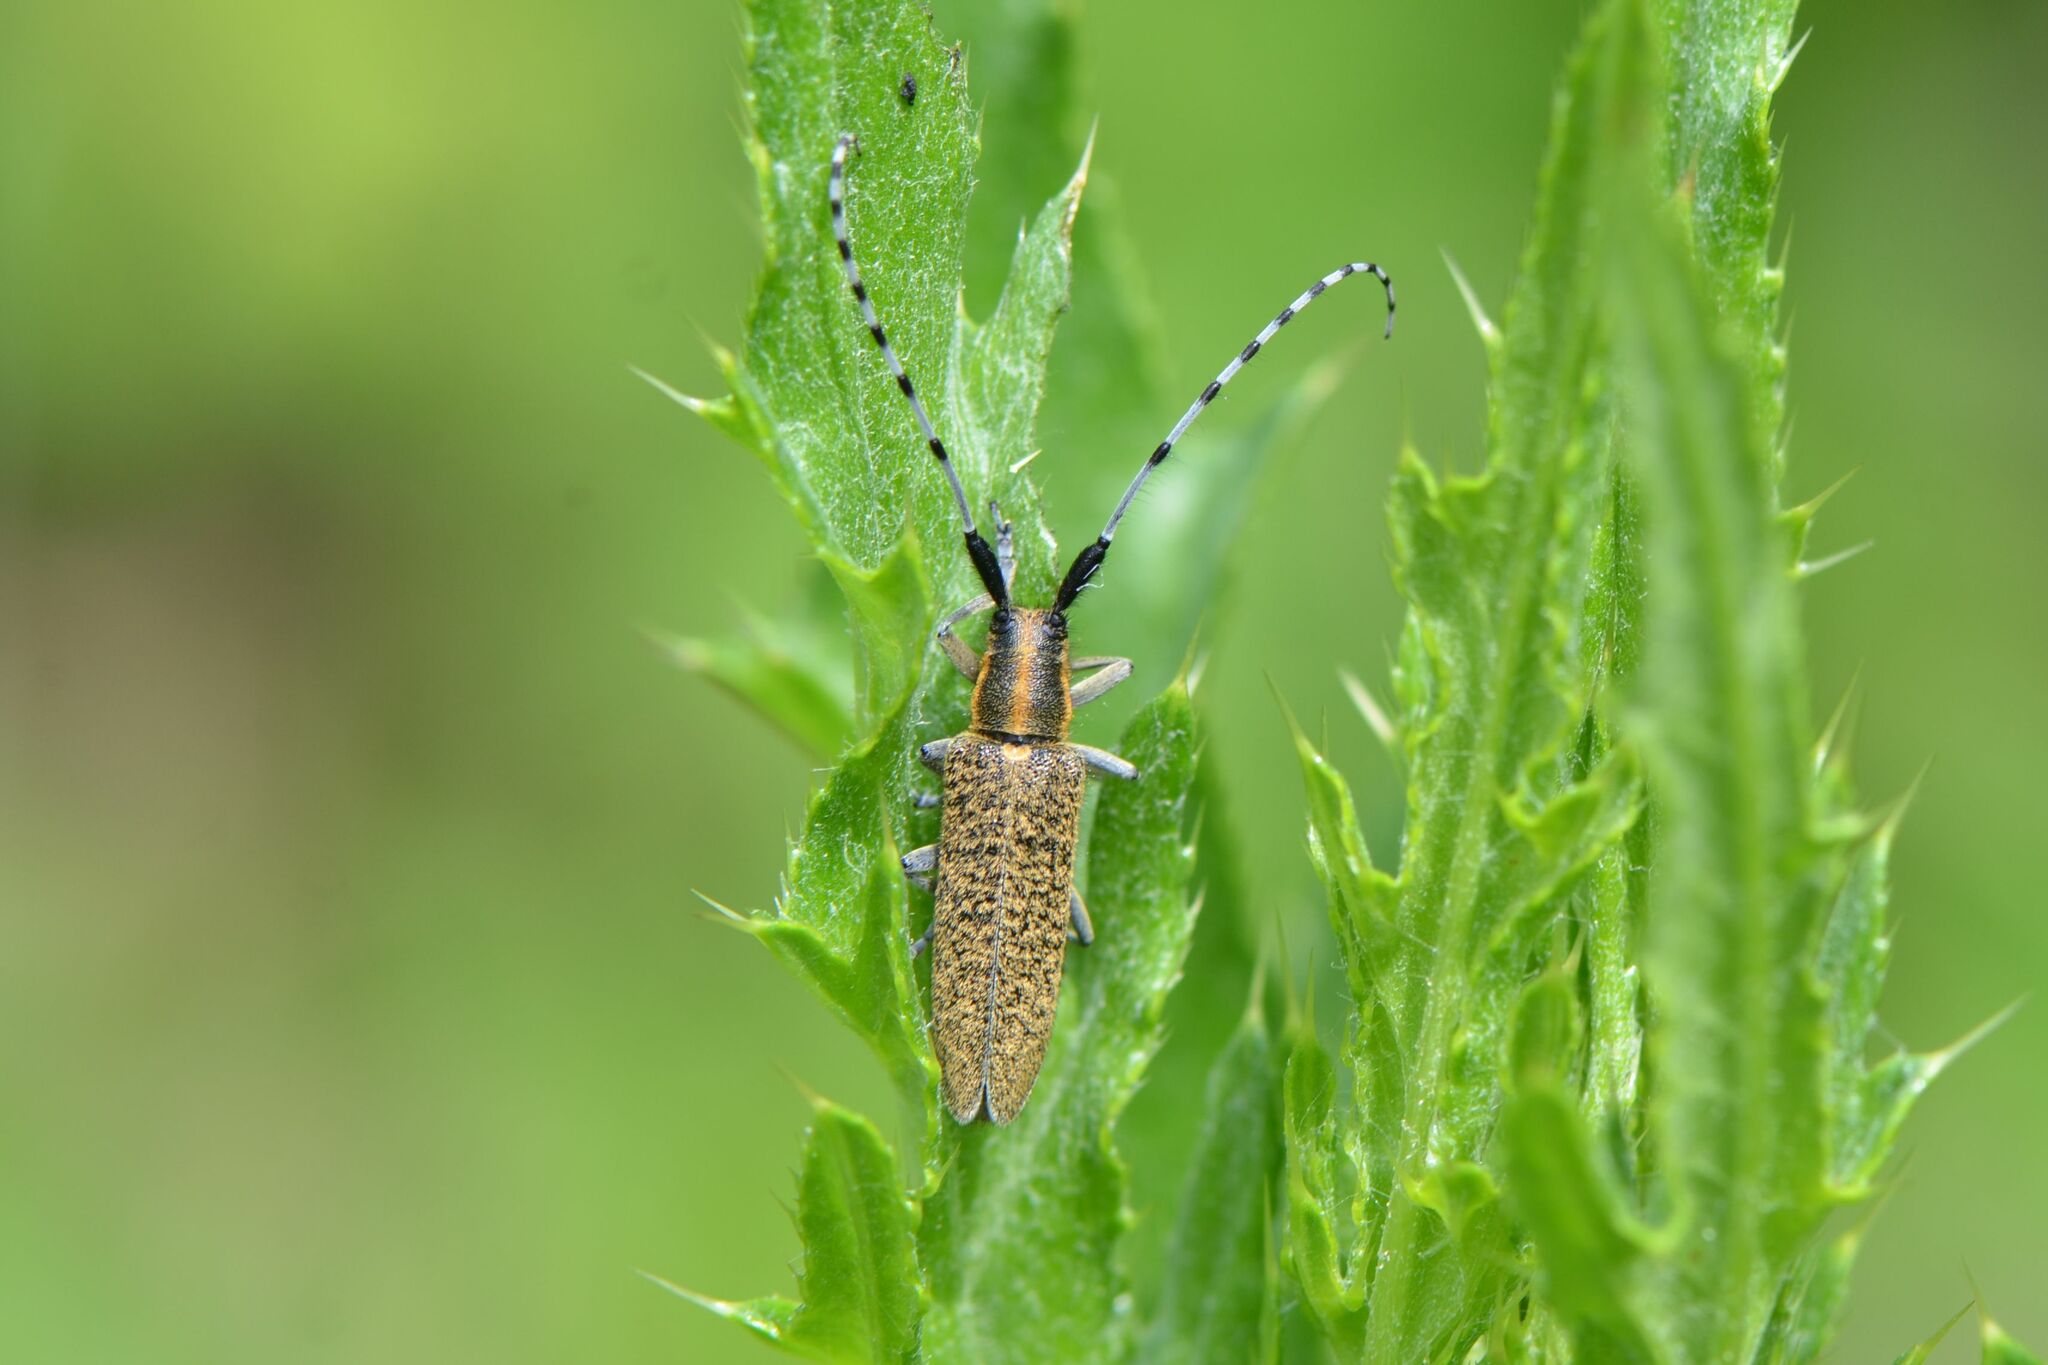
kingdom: Animalia
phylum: Arthropoda
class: Insecta
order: Coleoptera
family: Cerambycidae
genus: Agapanthia
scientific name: Agapanthia villosoviridescens
